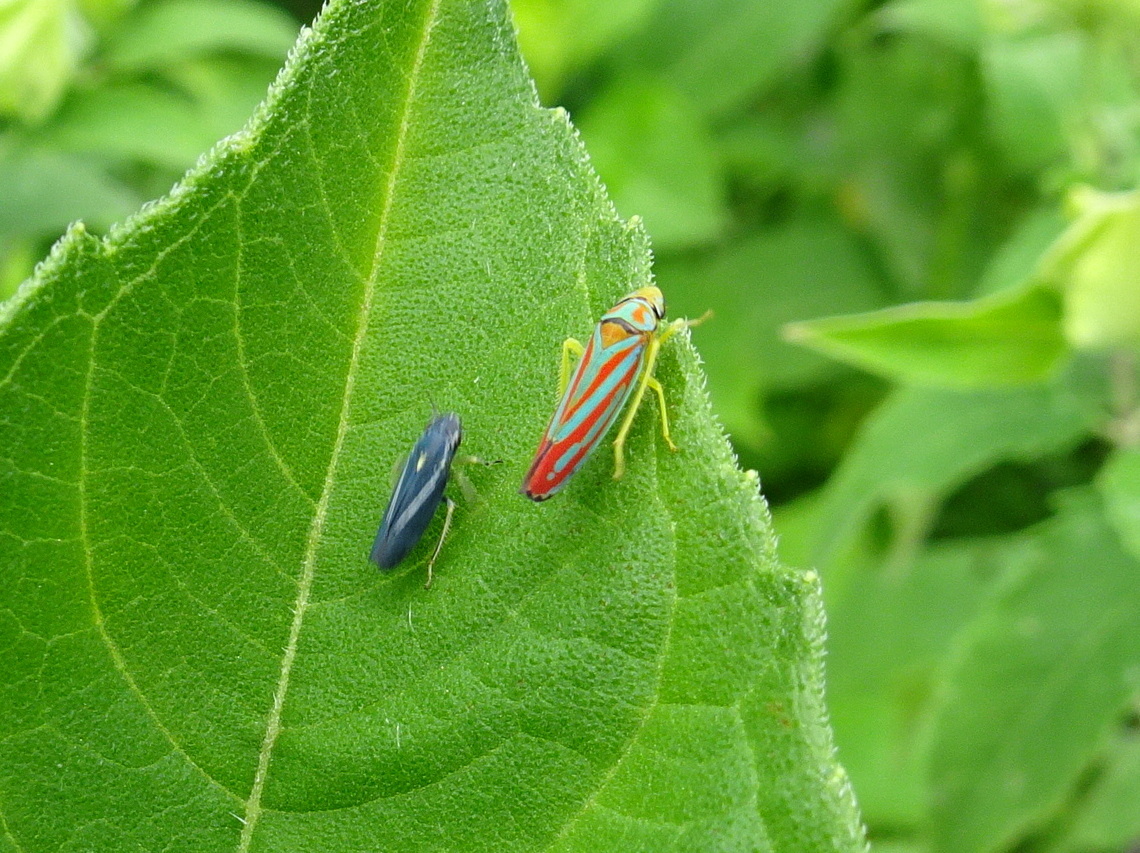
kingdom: Animalia
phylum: Arthropoda
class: Insecta
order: Hemiptera
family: Cicadellidae
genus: Neokolla
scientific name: Neokolla hieroglyphica
